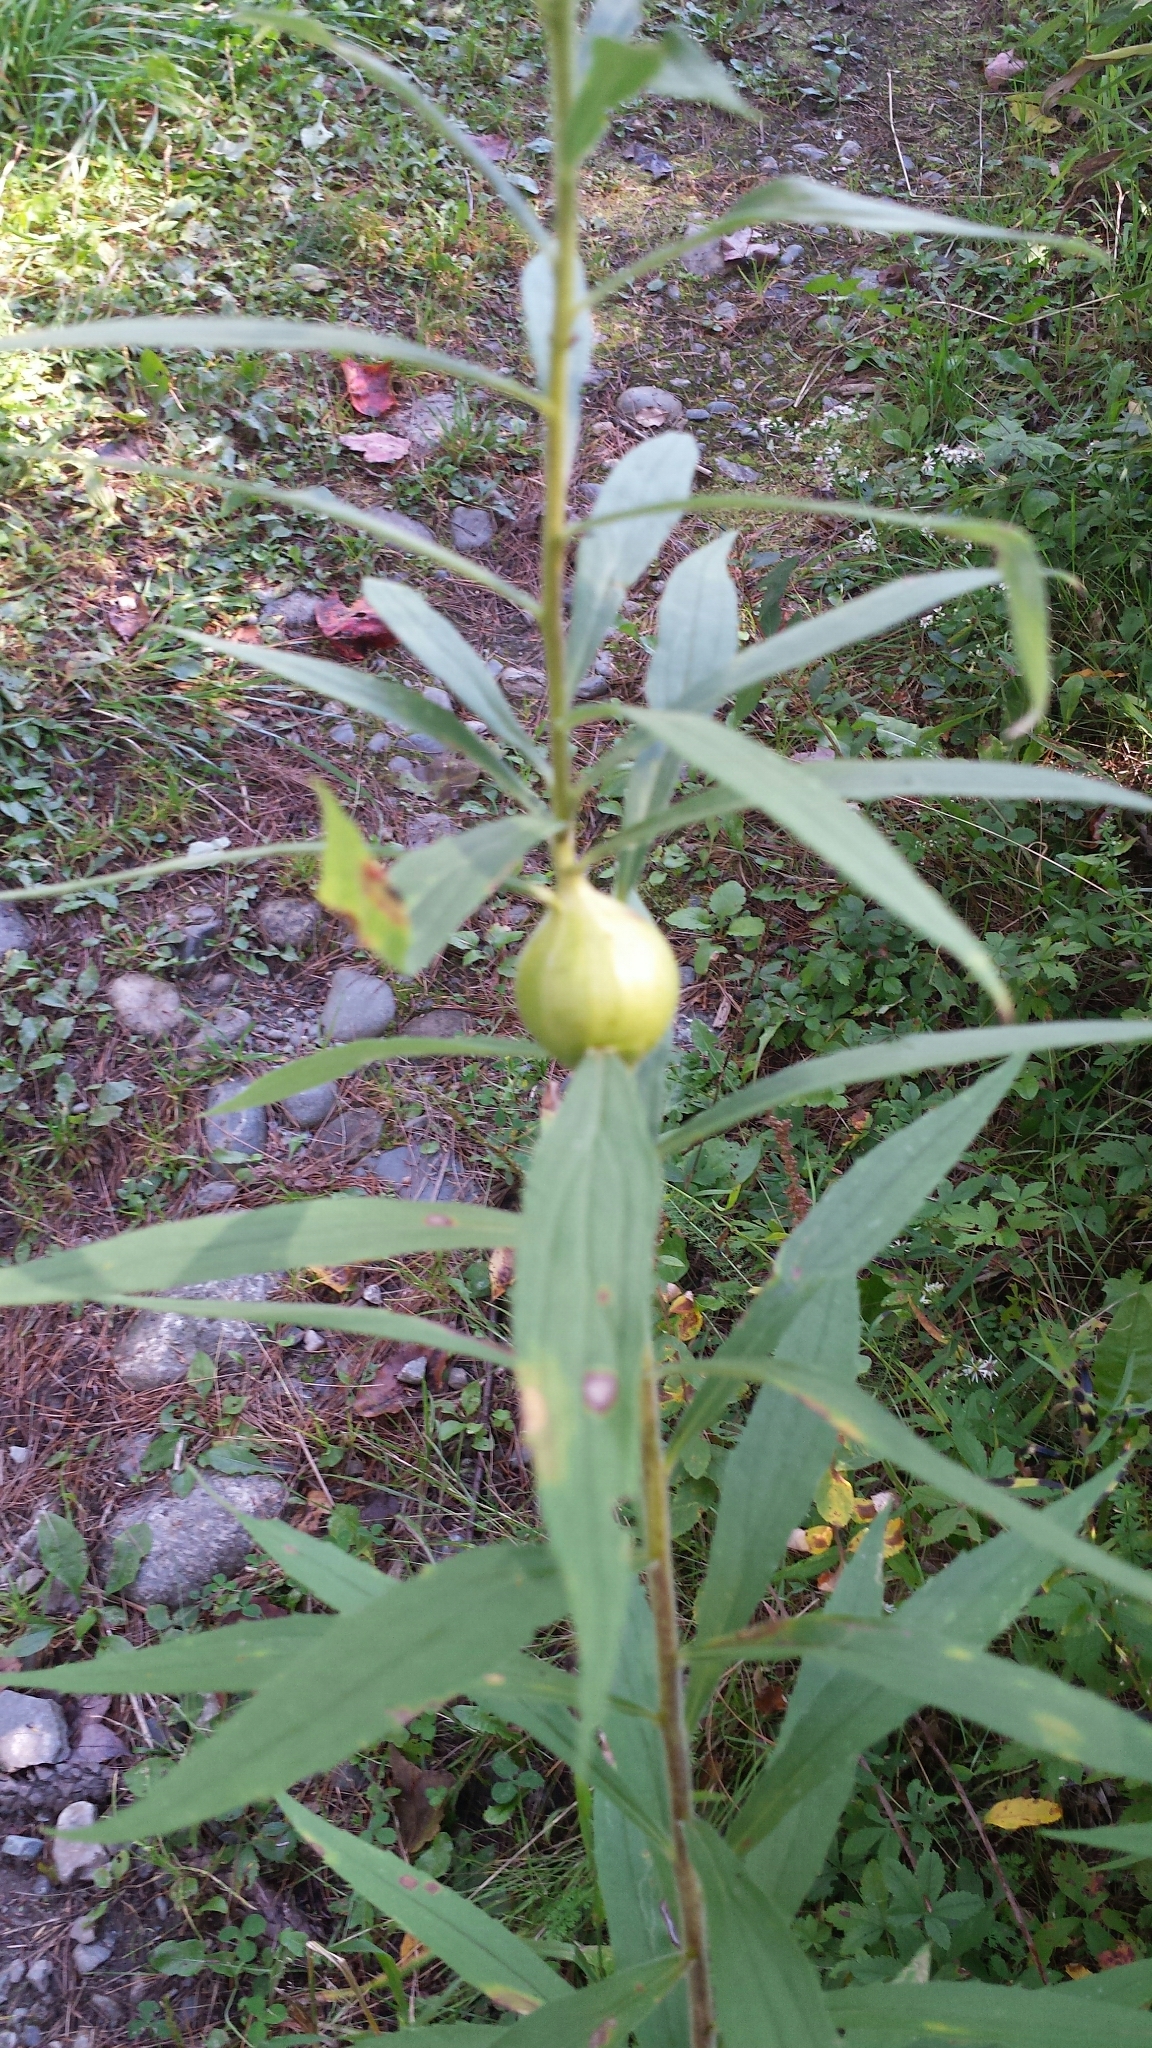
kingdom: Animalia
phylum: Arthropoda
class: Insecta
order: Diptera
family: Tephritidae
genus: Eurosta
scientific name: Eurosta solidaginis
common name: Goldenrod gall fly
